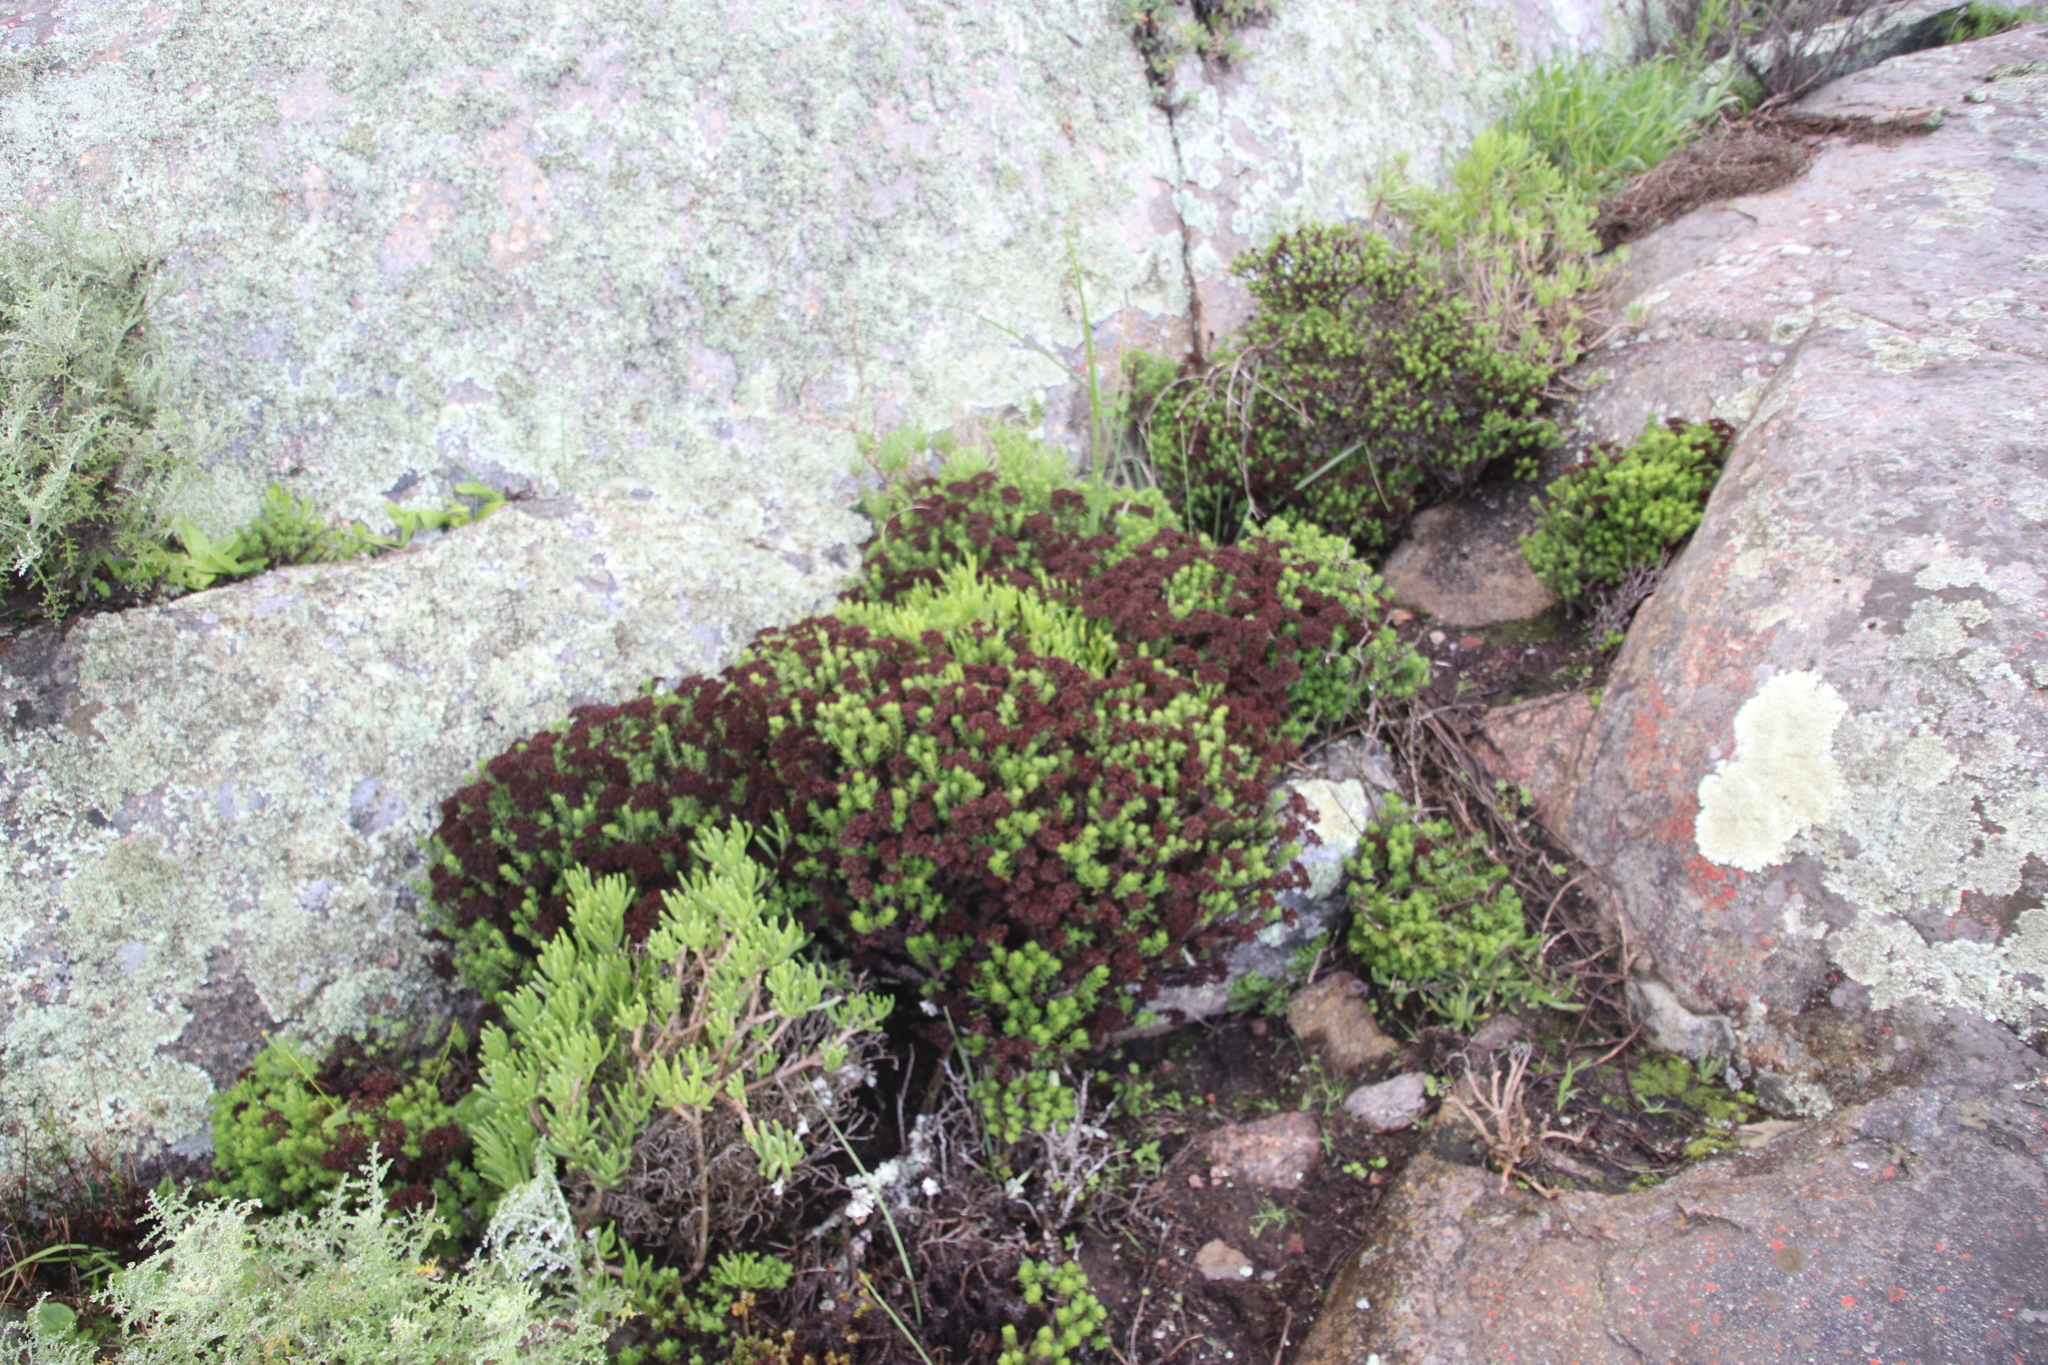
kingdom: Plantae
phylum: Tracheophyta
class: Magnoliopsida
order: Saxifragales
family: Crassulaceae
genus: Crassula
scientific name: Crassula undulata
